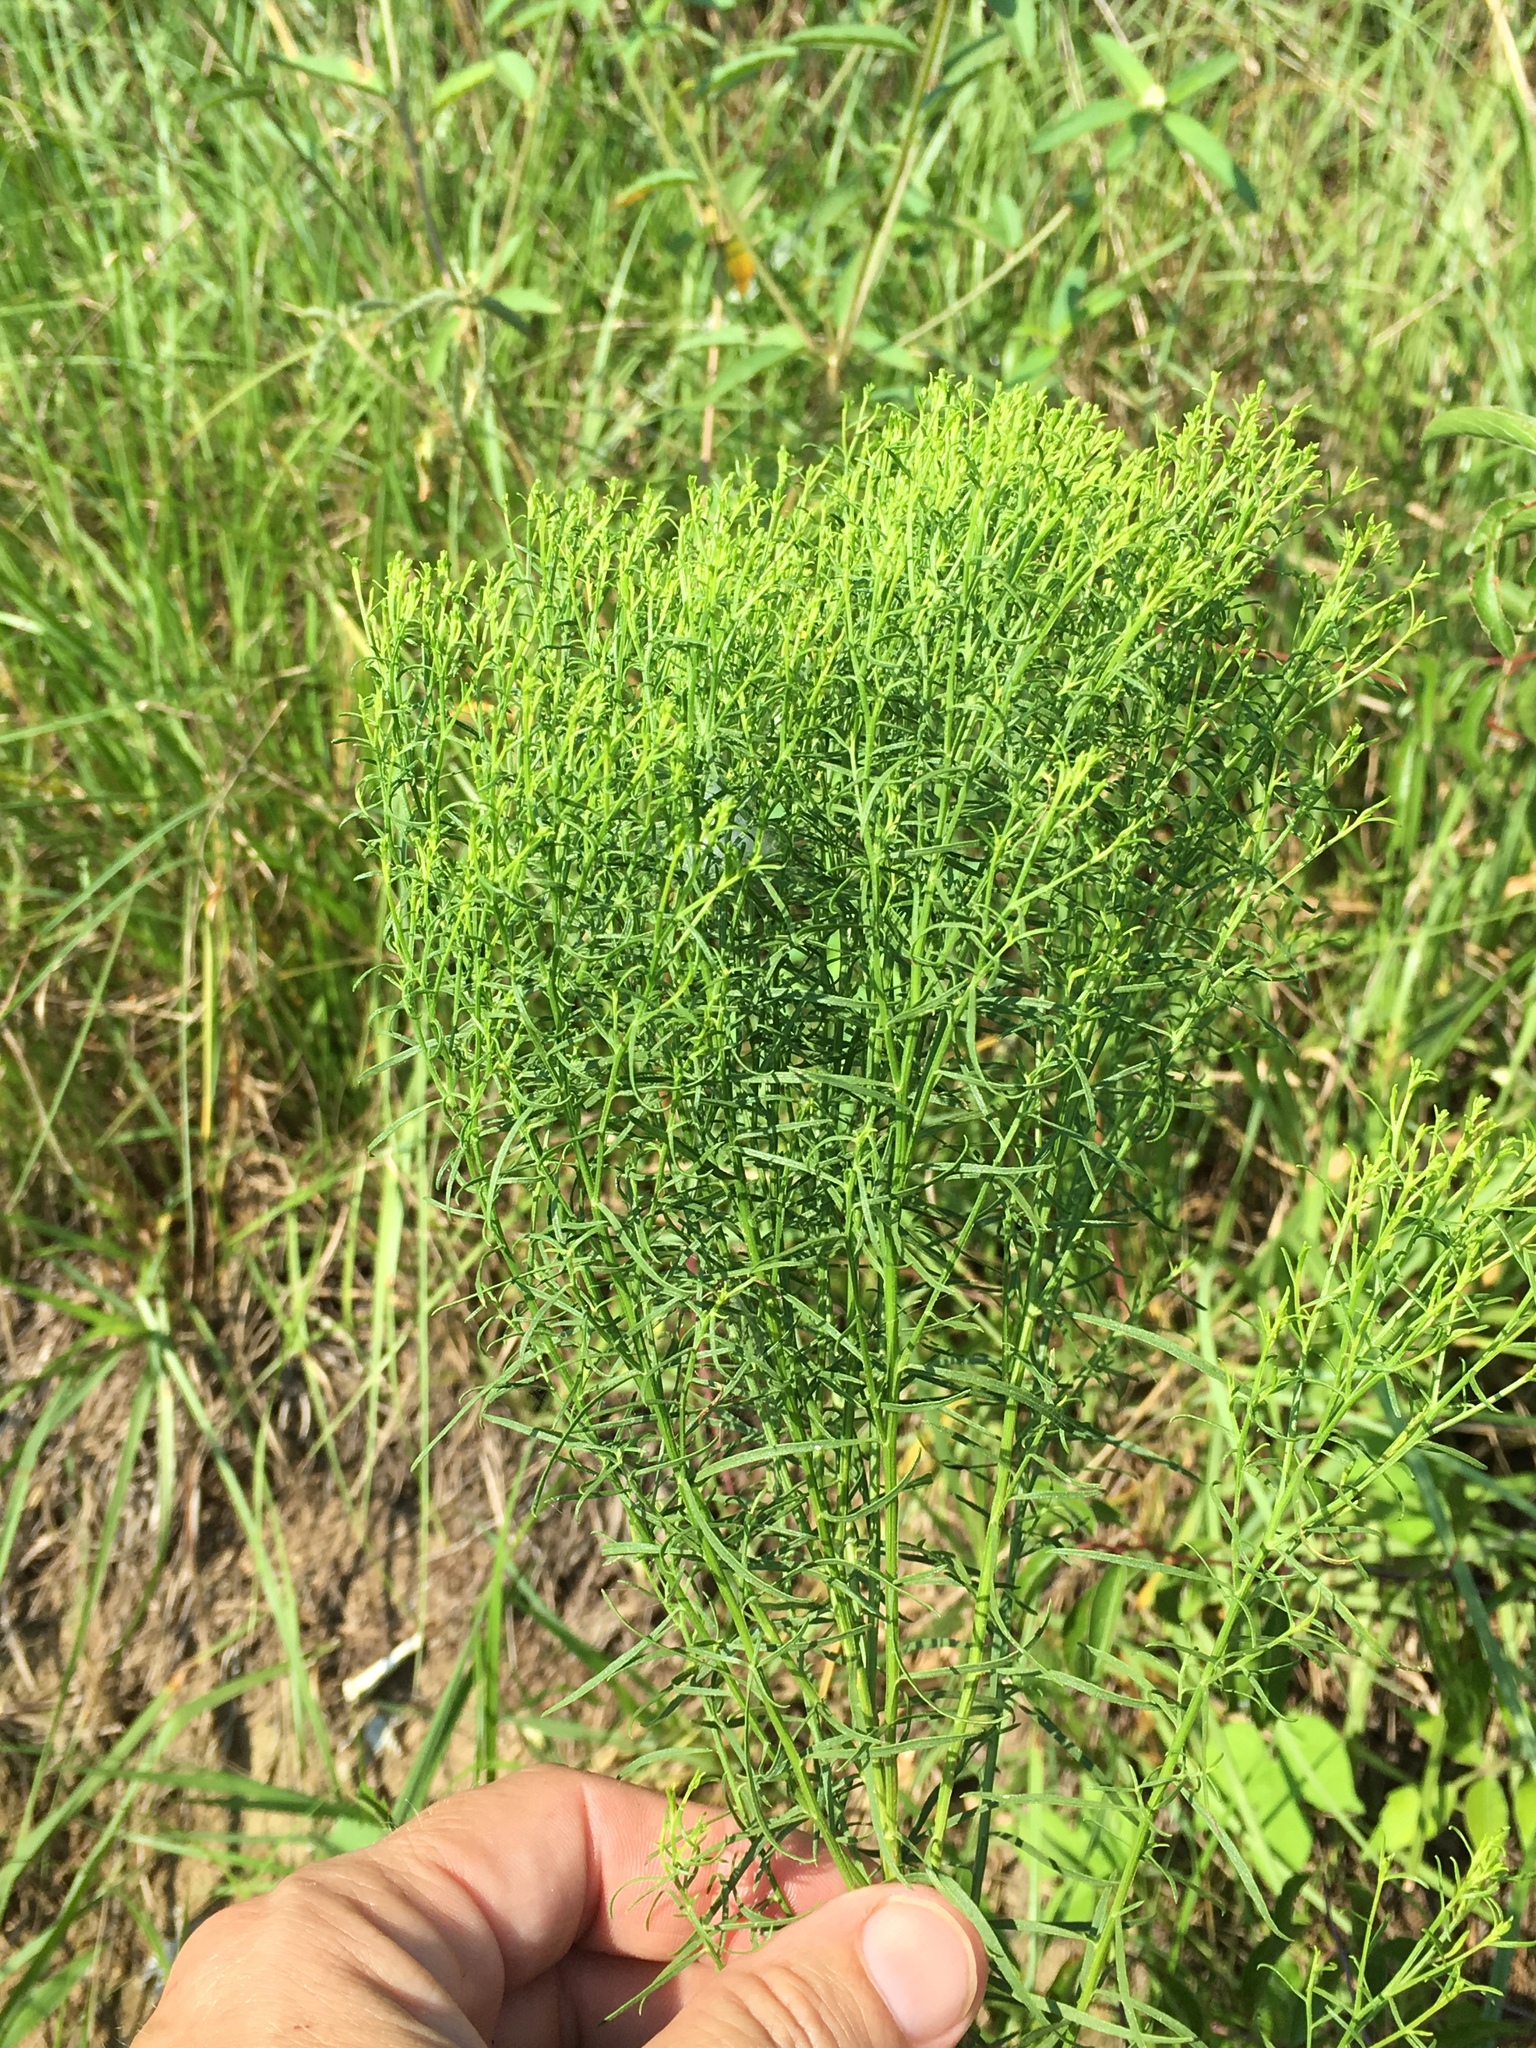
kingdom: Plantae
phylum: Tracheophyta
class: Magnoliopsida
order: Asterales
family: Asteraceae
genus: Euthamia
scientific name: Euthamia caroliniana
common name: Coastal plain goldentop
